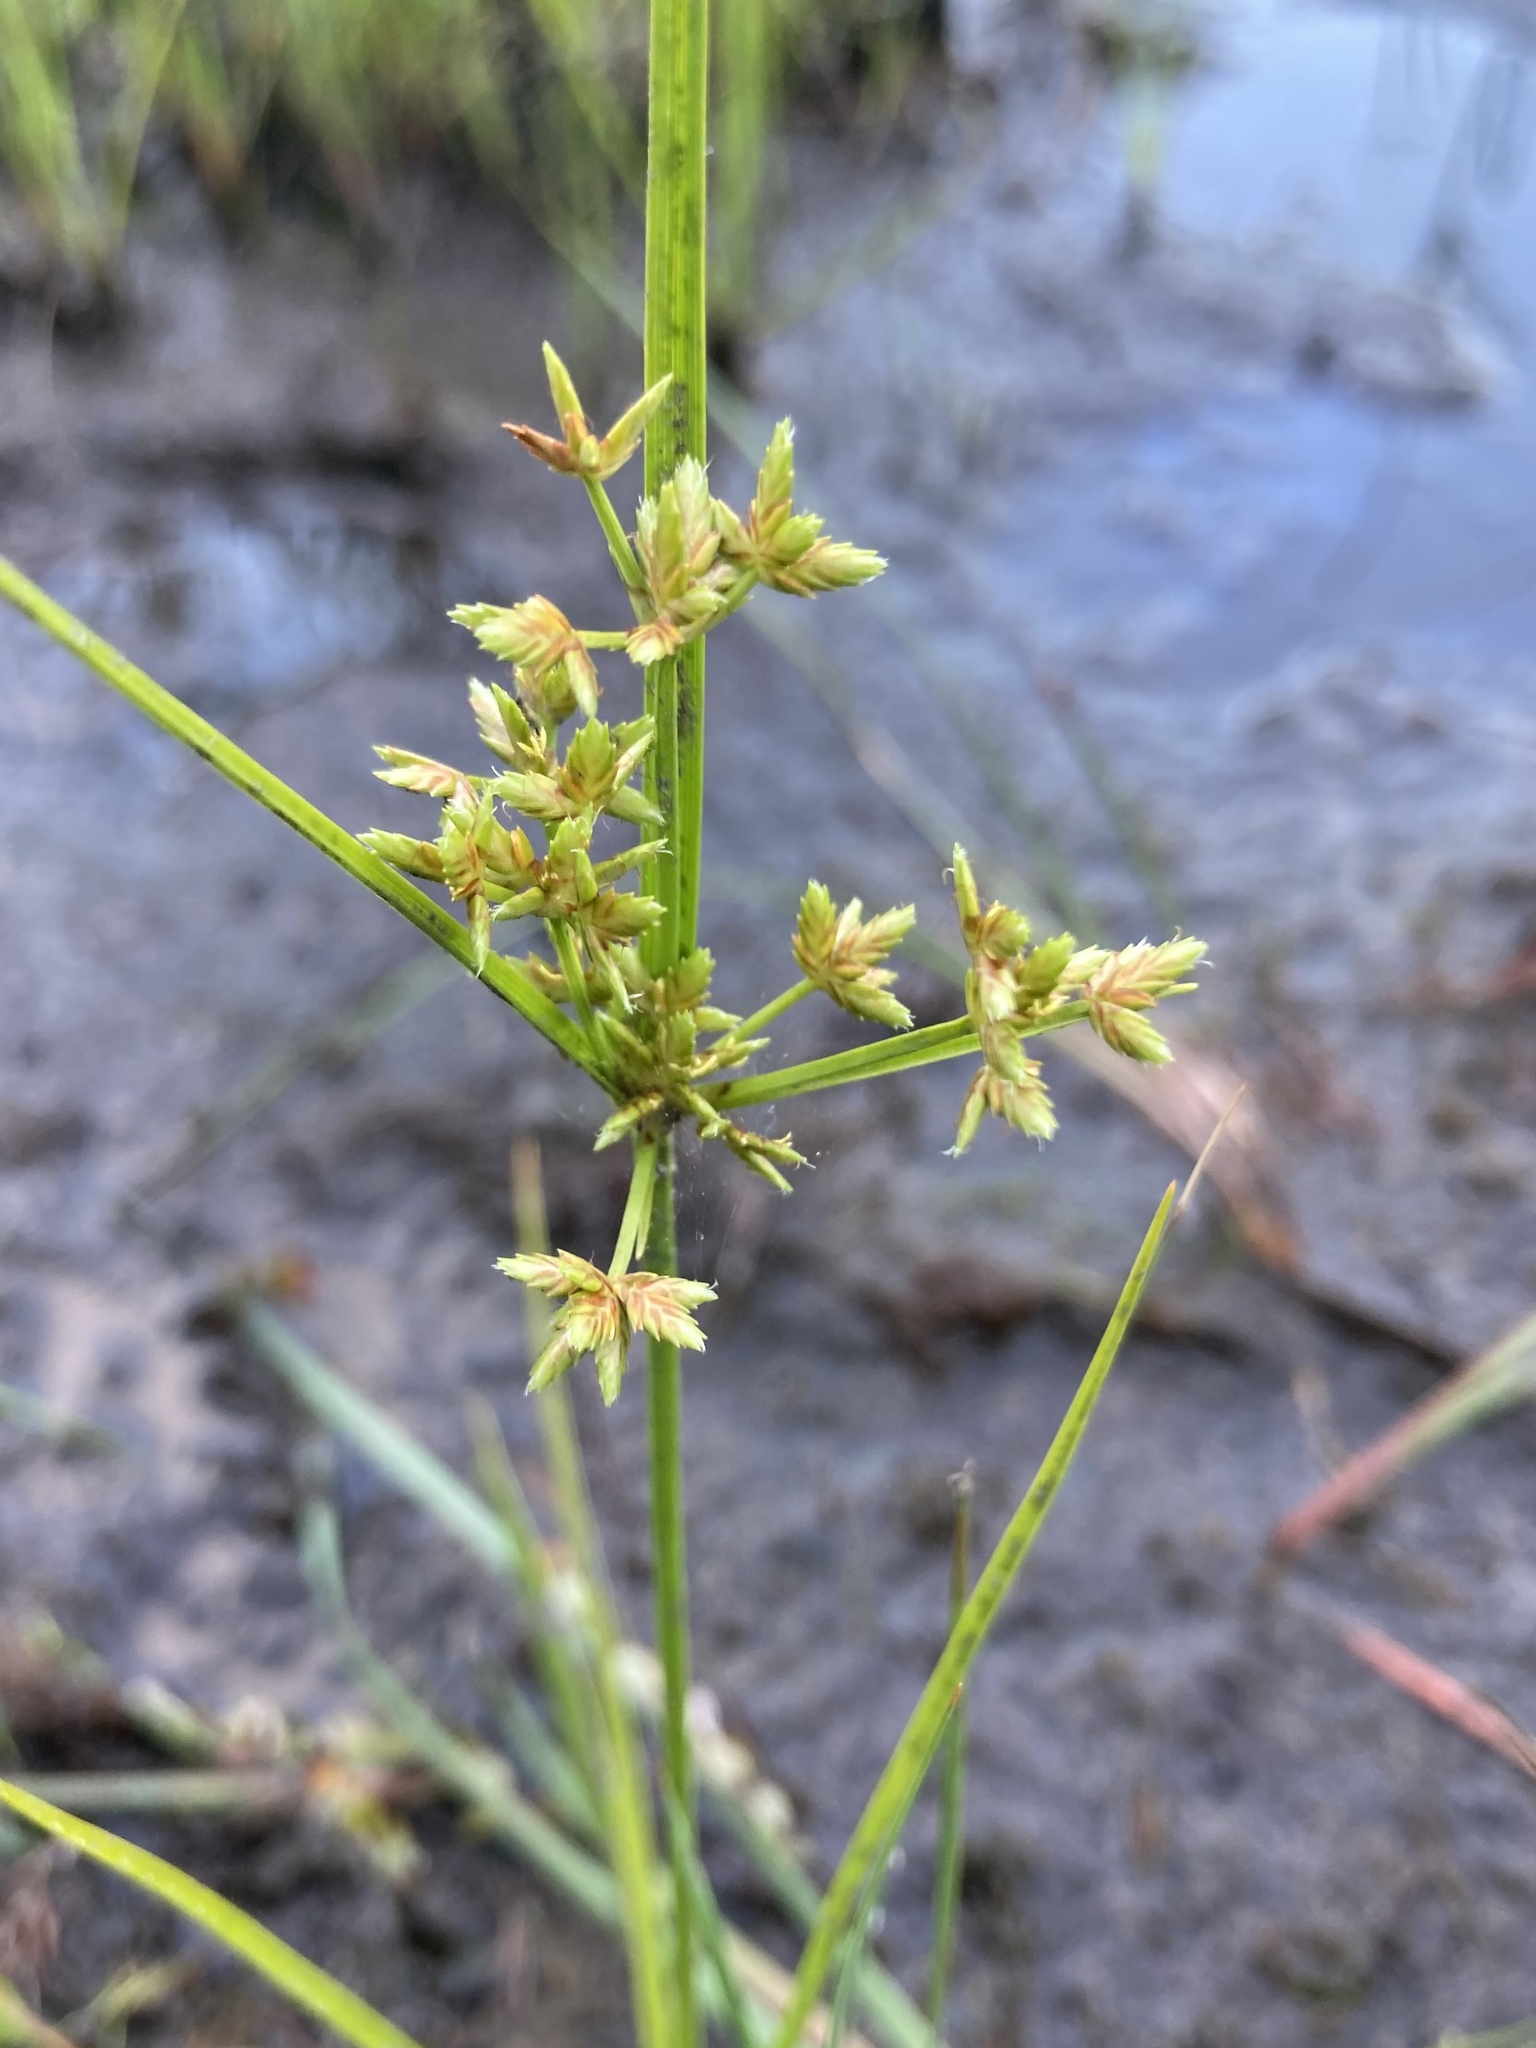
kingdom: Plantae
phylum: Tracheophyta
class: Liliopsida
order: Poales
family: Cyperaceae
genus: Cyperus
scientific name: Cyperus dentatus
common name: Dentate umbrella sedge
